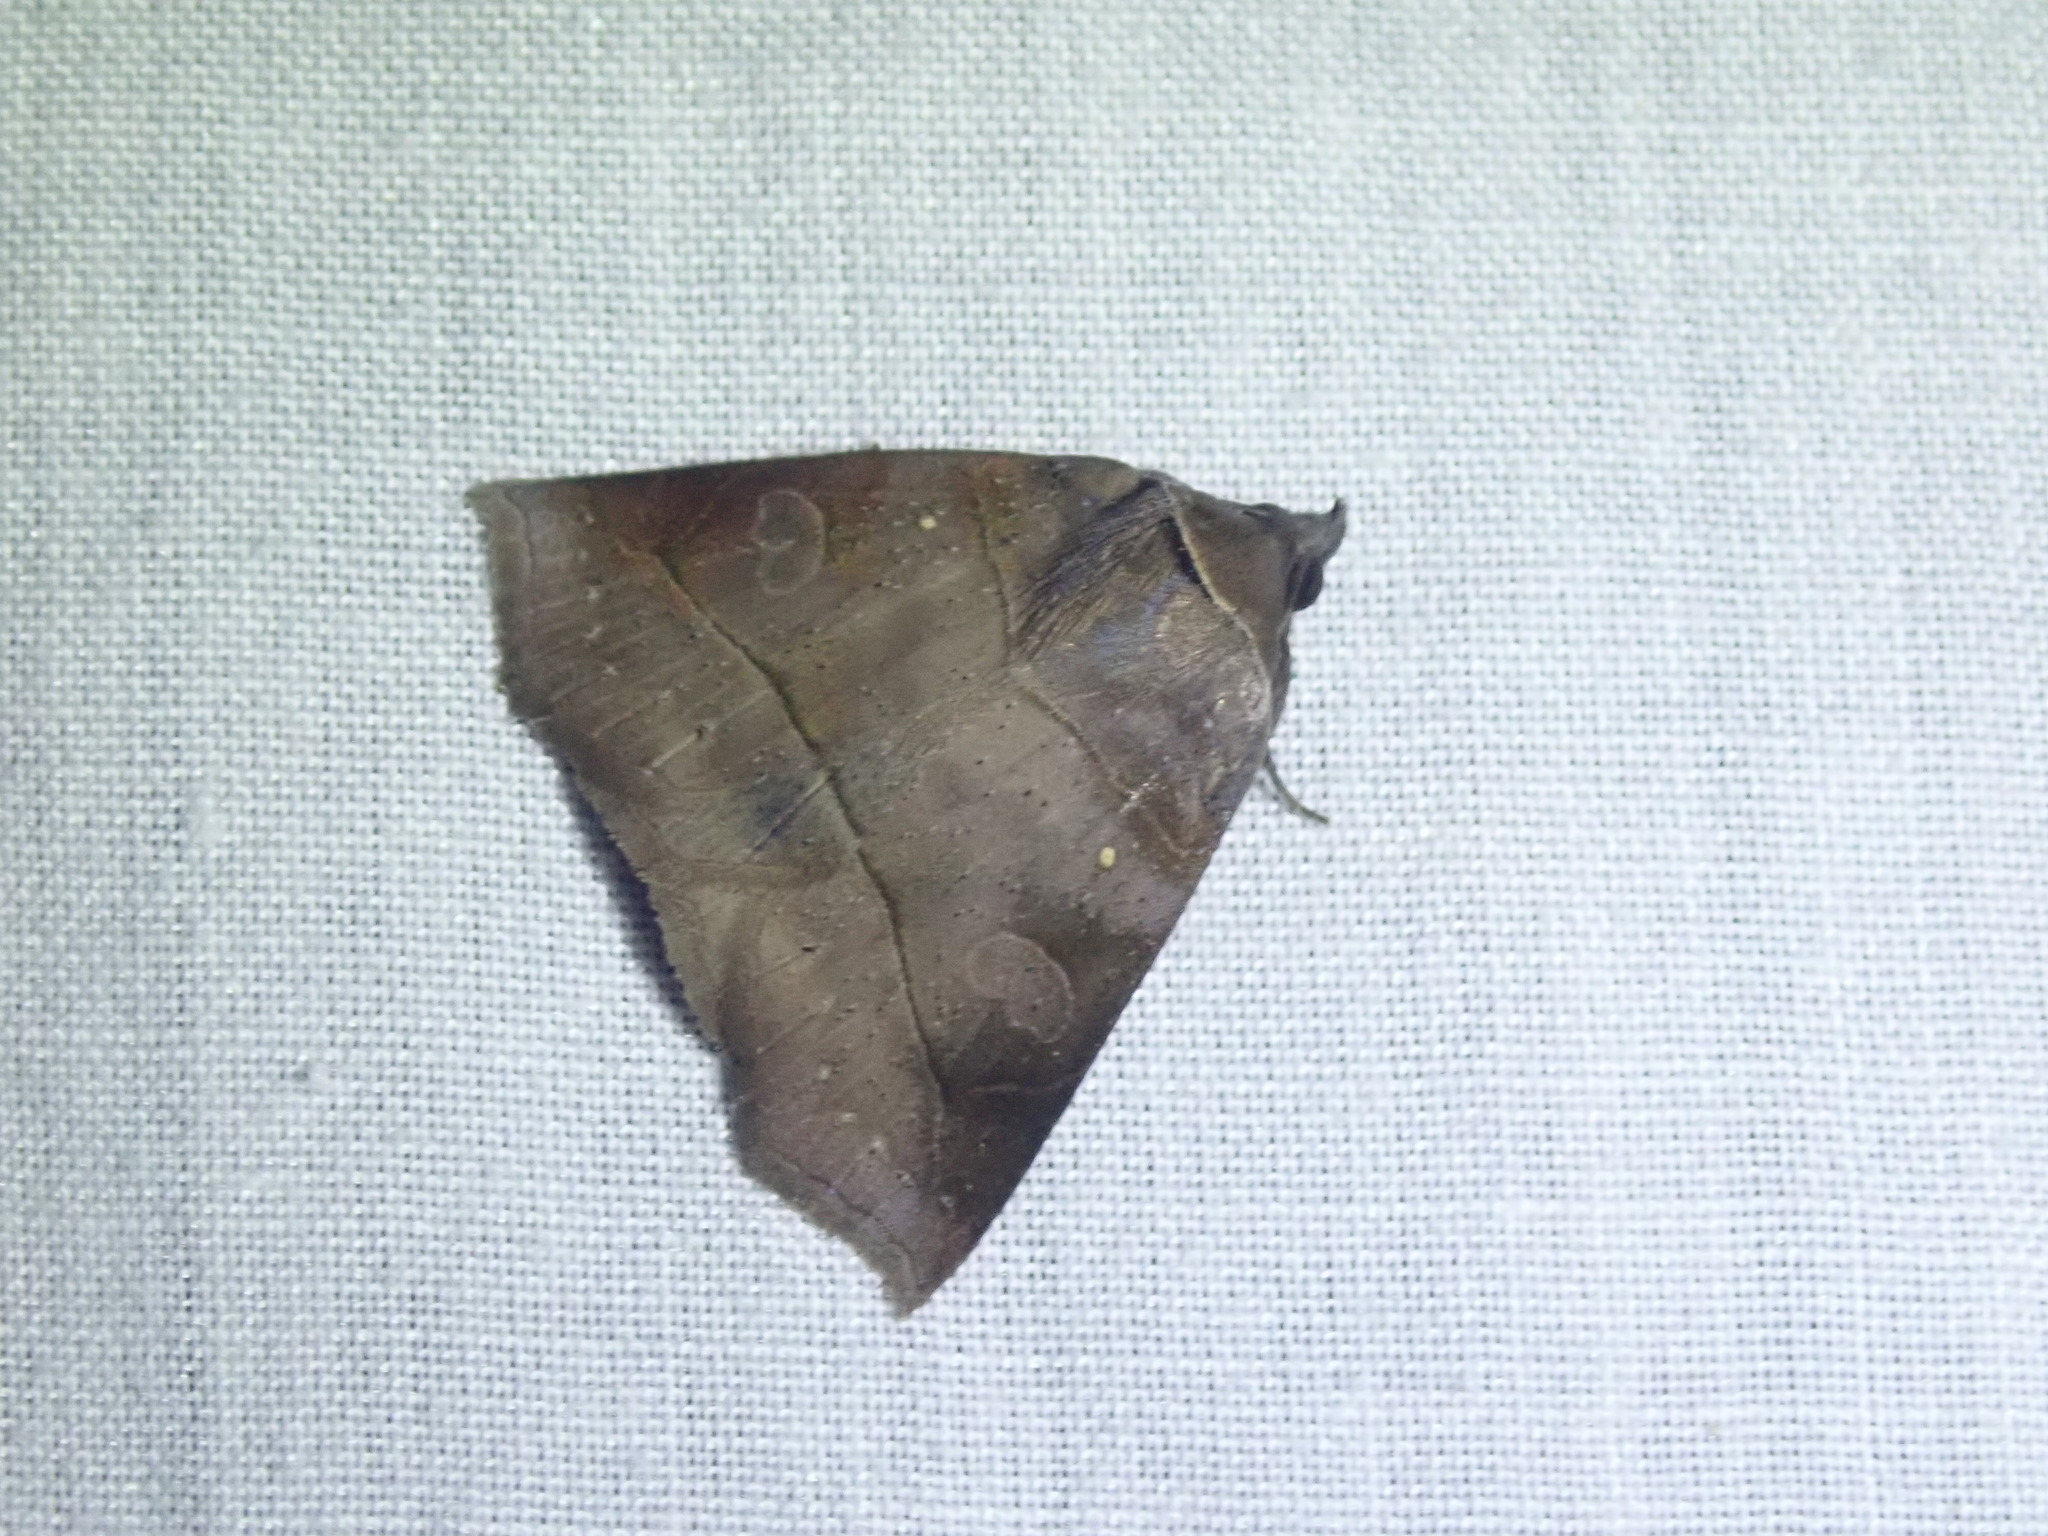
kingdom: Animalia
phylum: Arthropoda
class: Insecta
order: Lepidoptera
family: Erebidae
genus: Isogona
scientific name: Isogona natatrix
